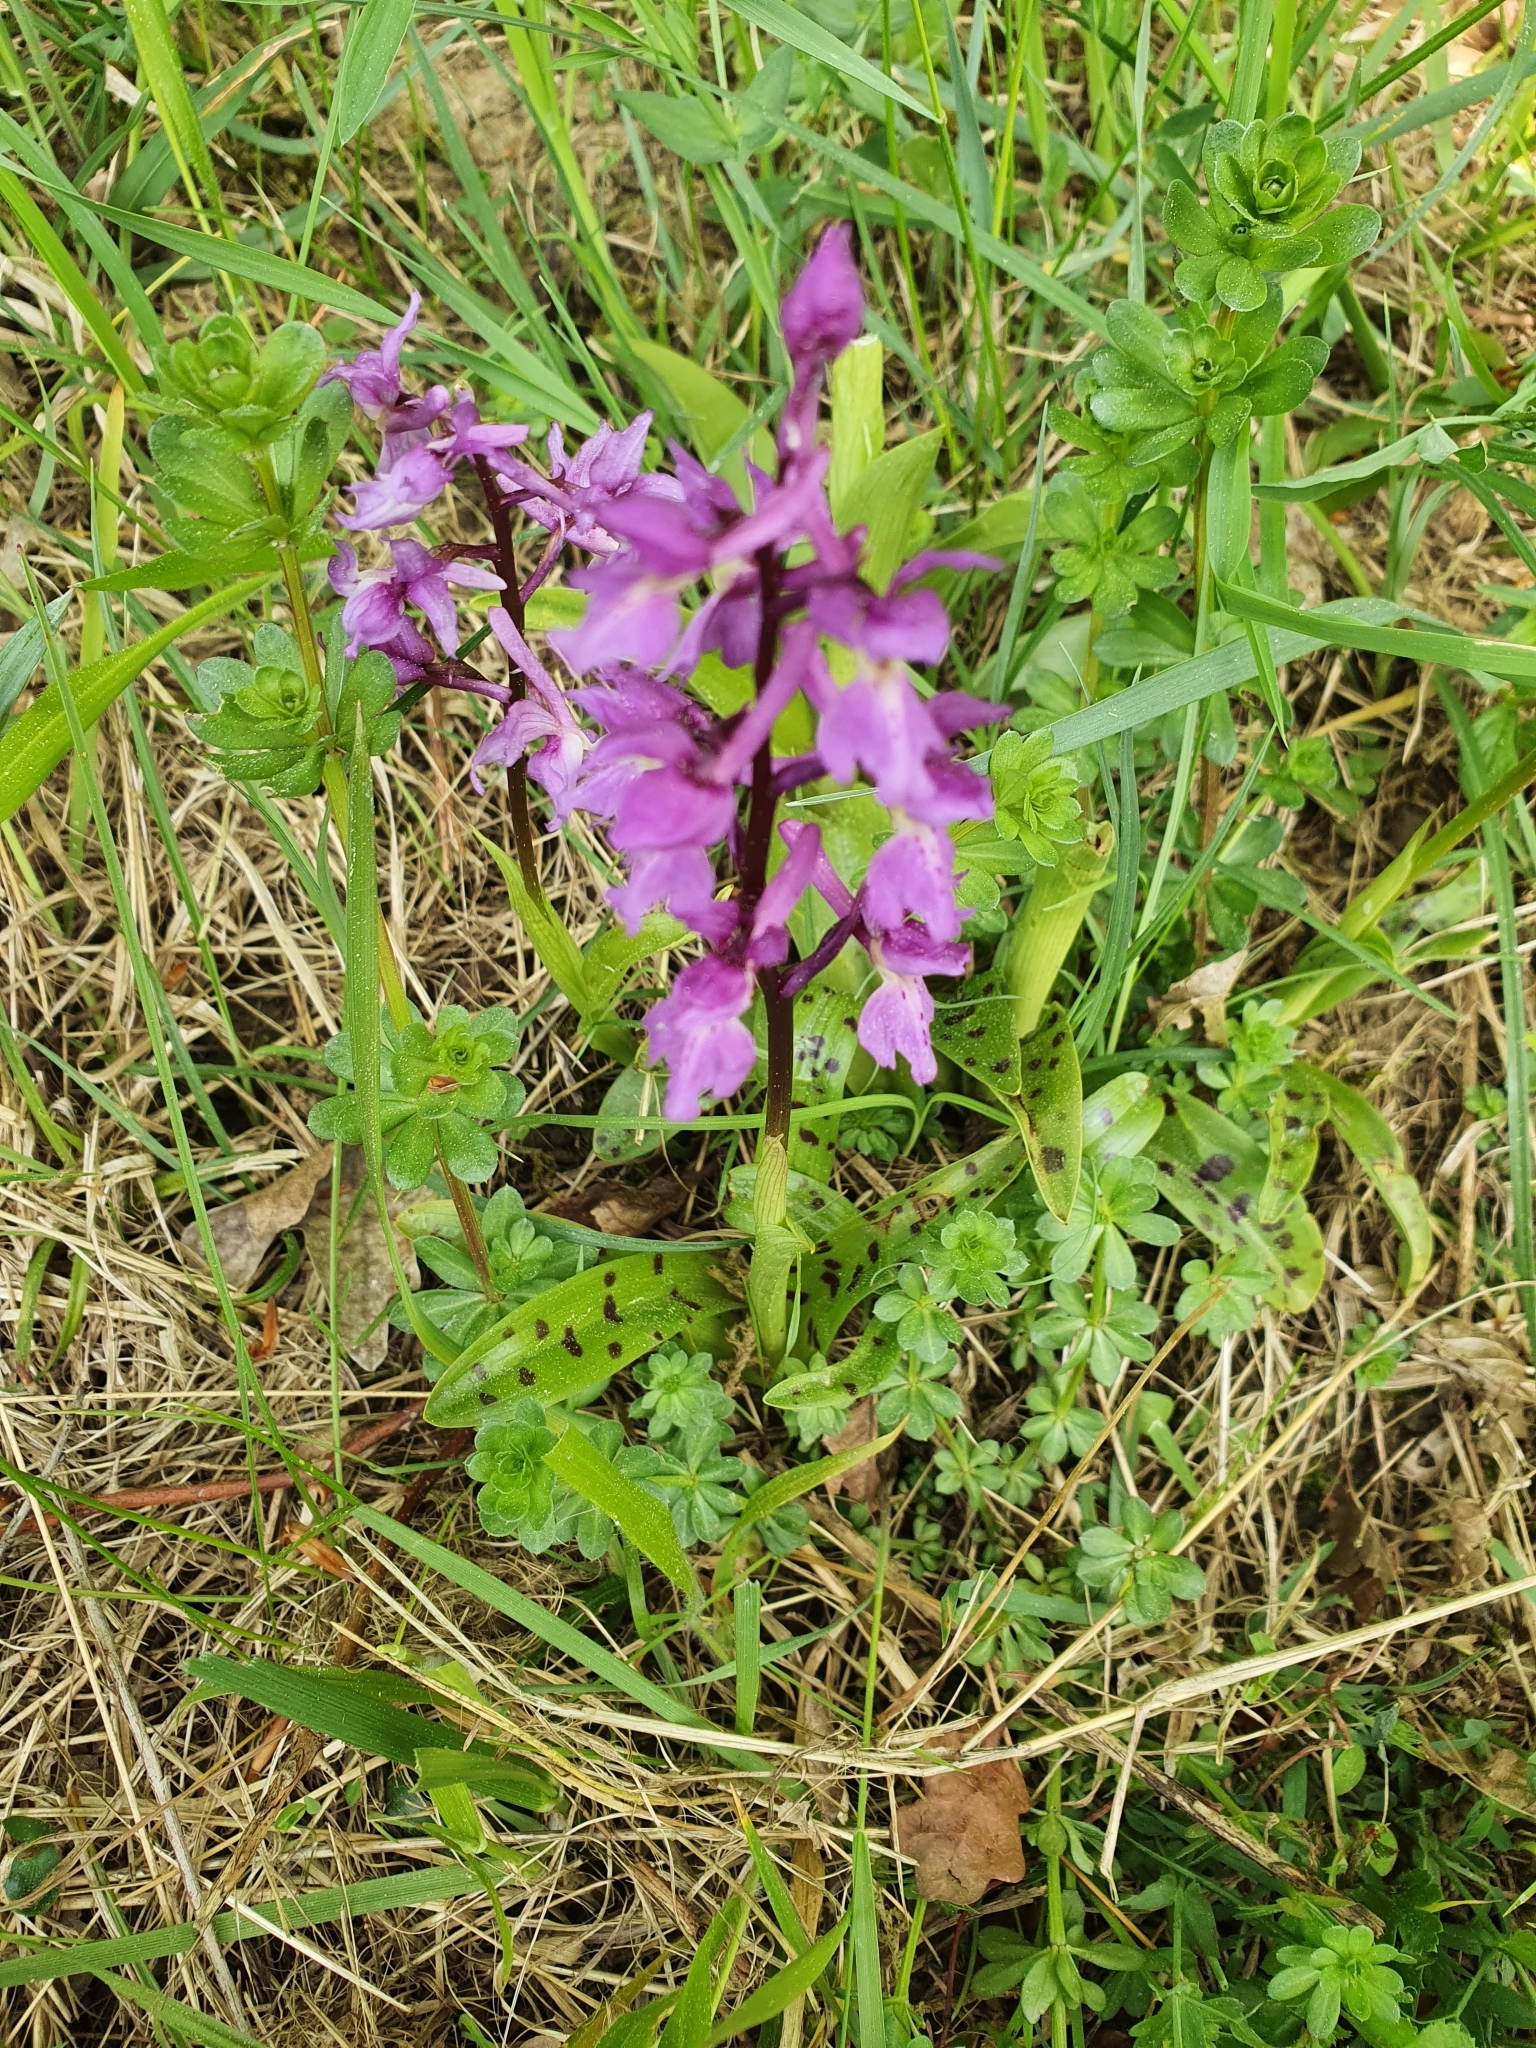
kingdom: Plantae
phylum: Tracheophyta
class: Liliopsida
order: Asparagales
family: Orchidaceae
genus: Orchis
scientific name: Orchis mascula
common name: Early-purple orchid
